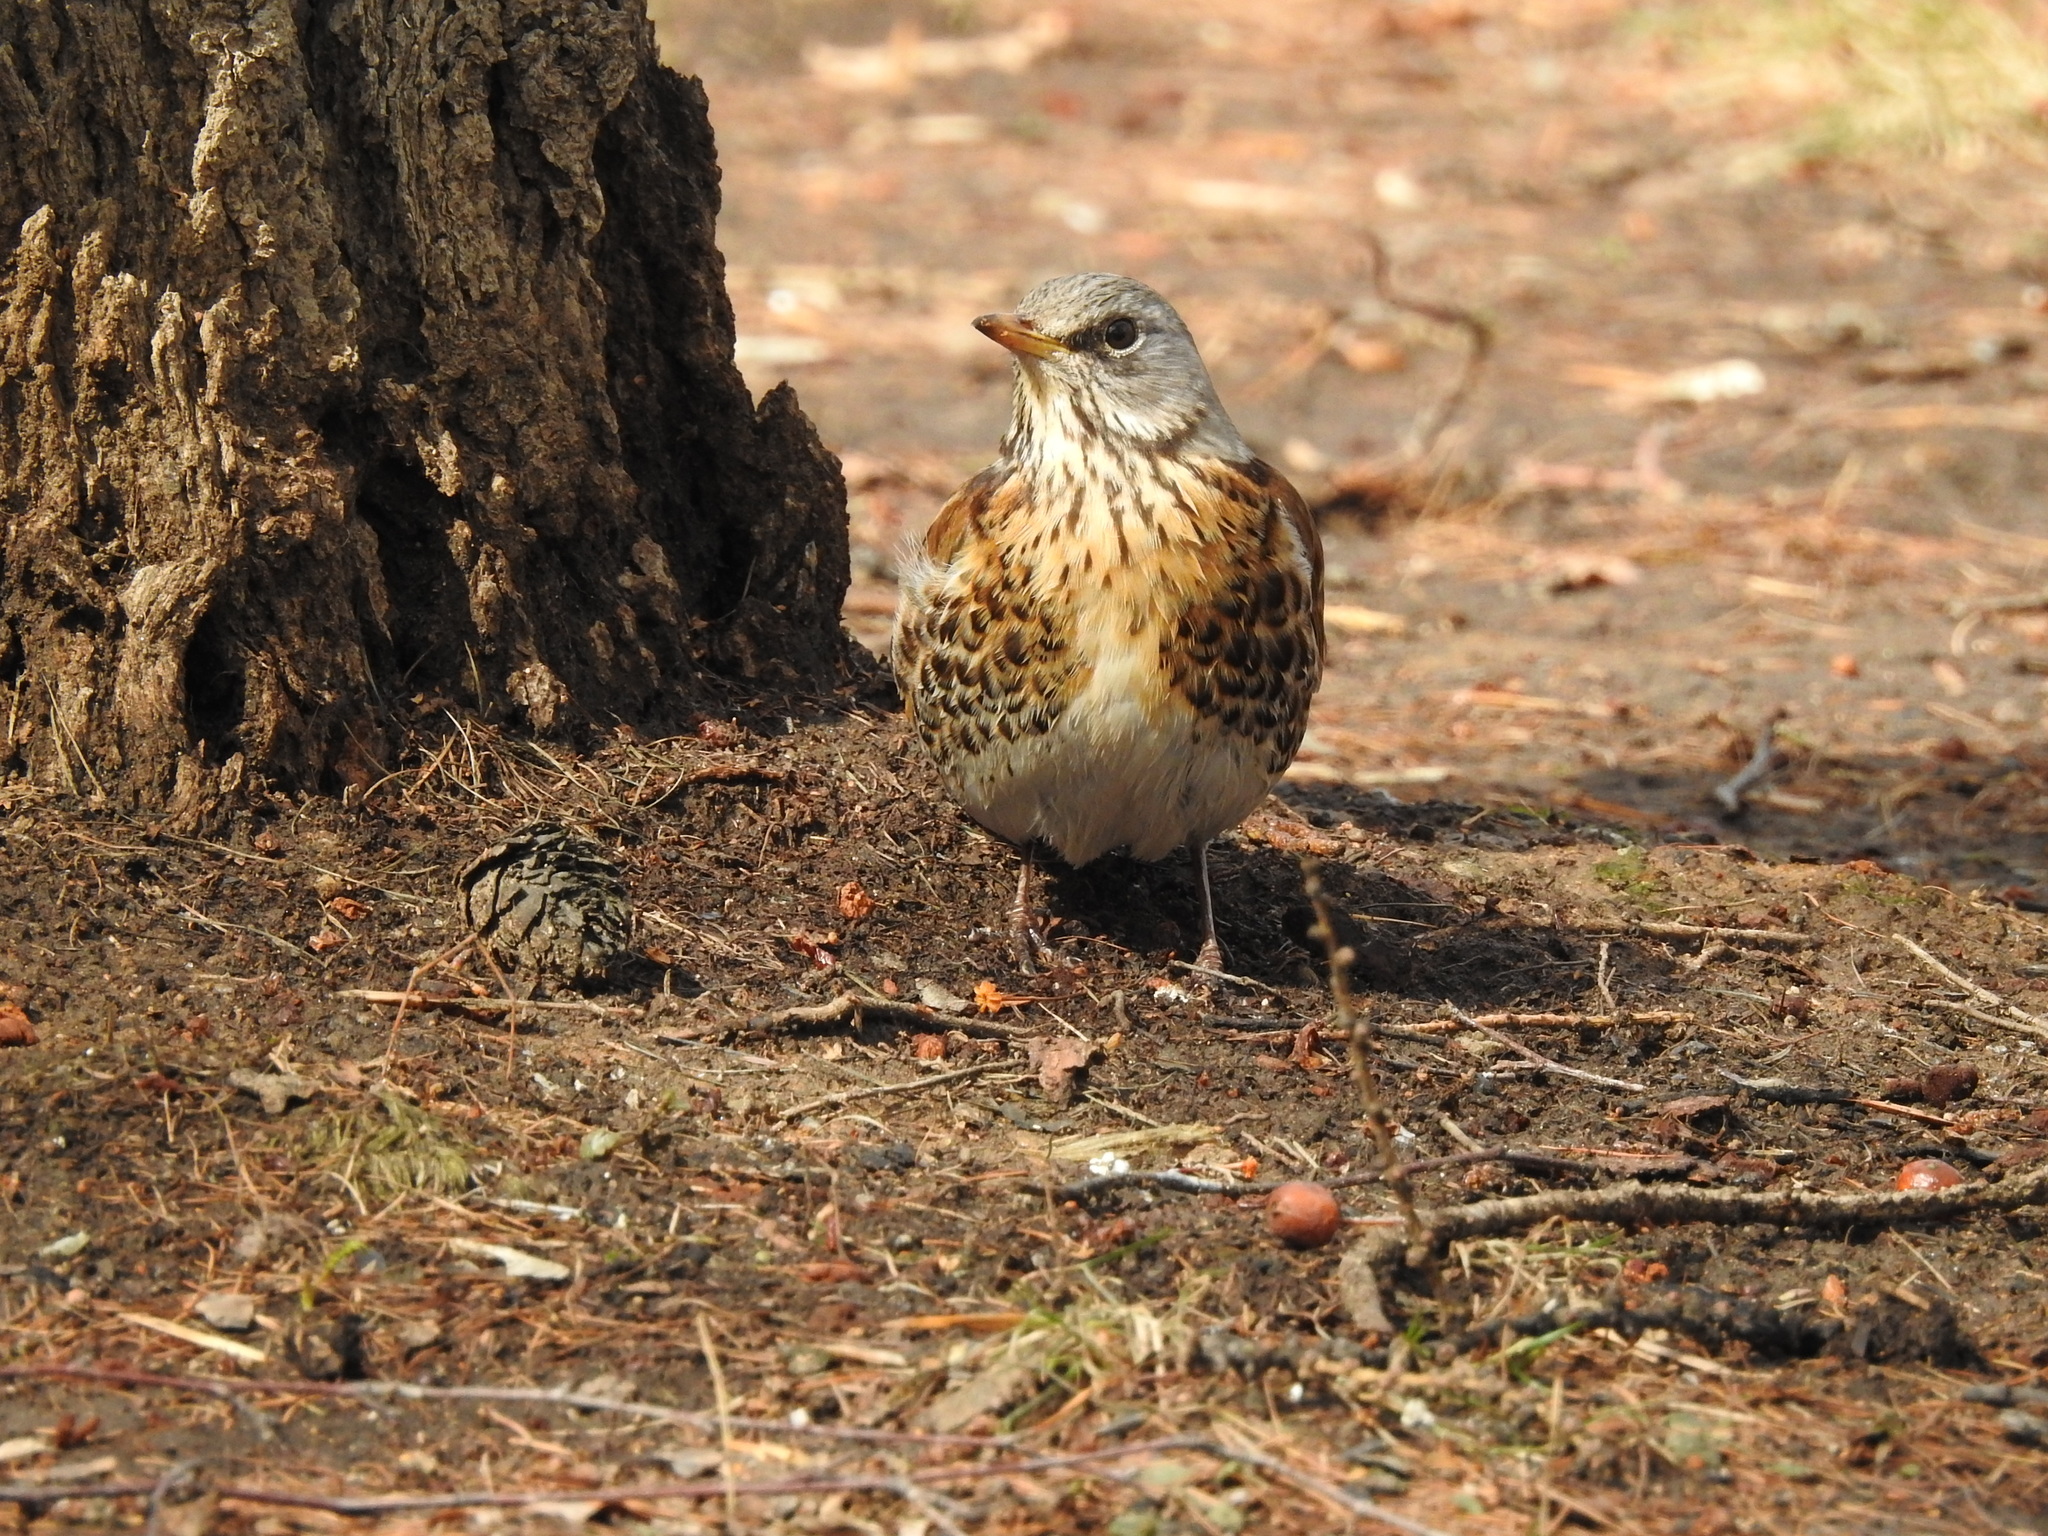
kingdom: Animalia
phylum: Chordata
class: Aves
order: Passeriformes
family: Turdidae
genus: Turdus
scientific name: Turdus pilaris
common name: Fieldfare
